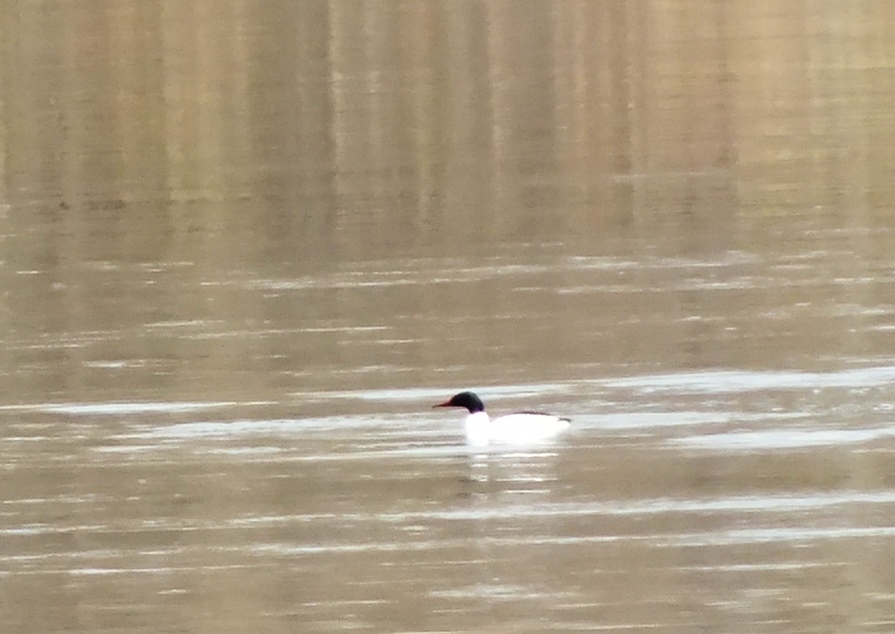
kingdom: Animalia
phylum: Chordata
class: Aves
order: Anseriformes
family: Anatidae
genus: Mergus
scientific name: Mergus merganser
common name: Common merganser
